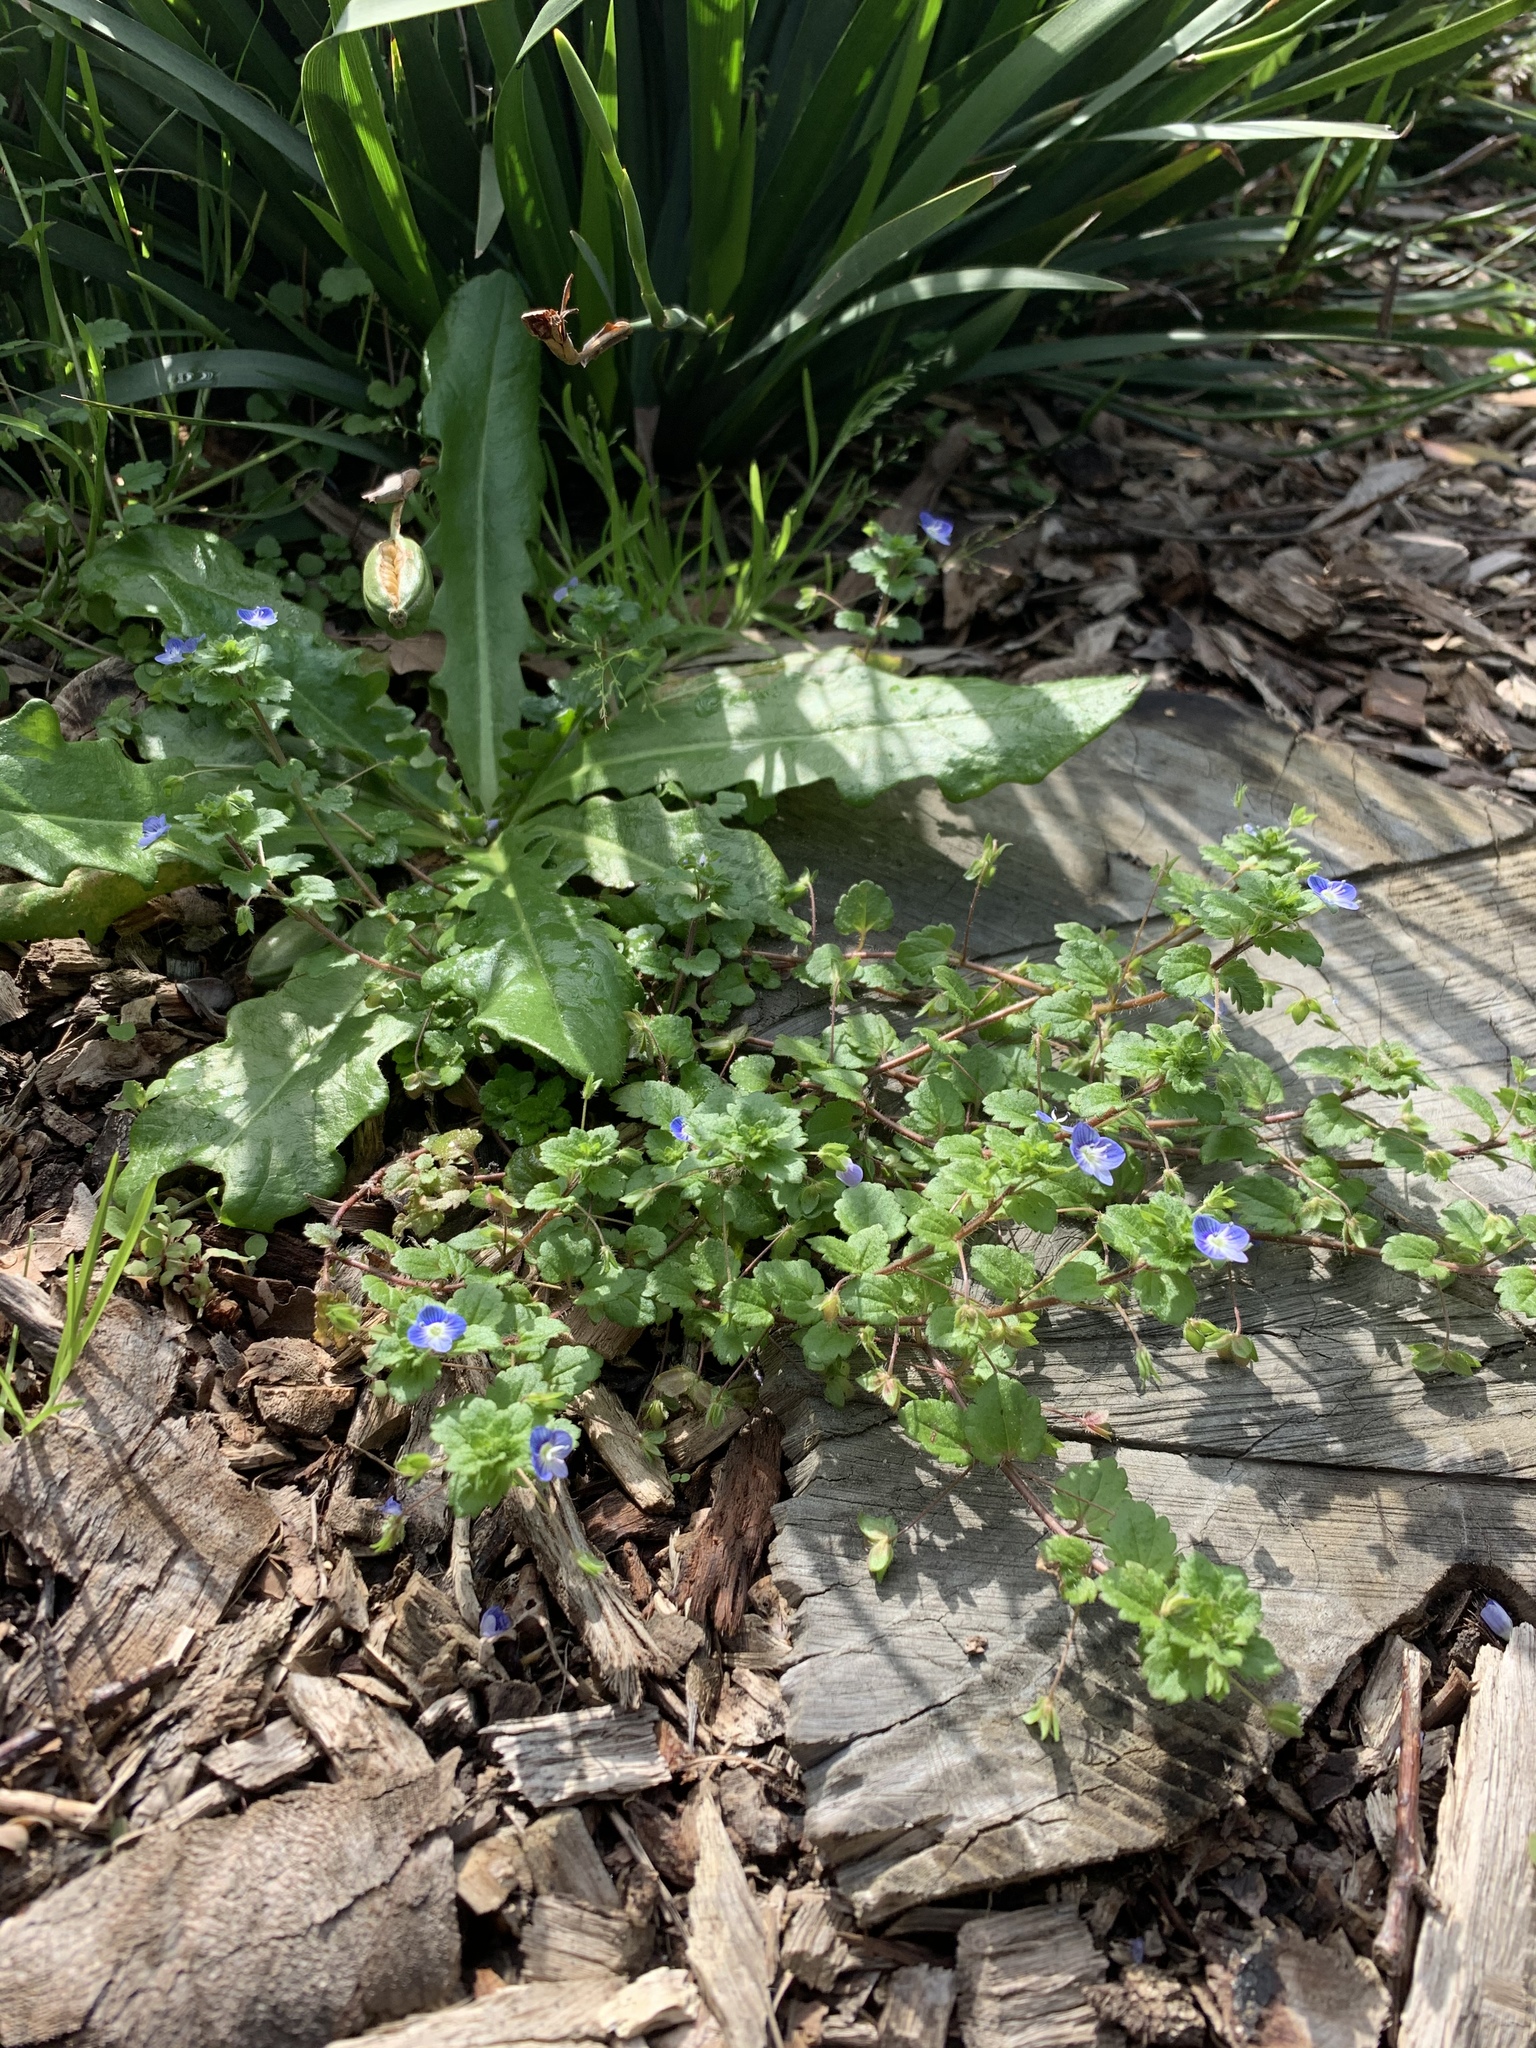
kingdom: Plantae
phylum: Tracheophyta
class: Magnoliopsida
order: Lamiales
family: Plantaginaceae
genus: Veronica
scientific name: Veronica persica
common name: Common field-speedwell
